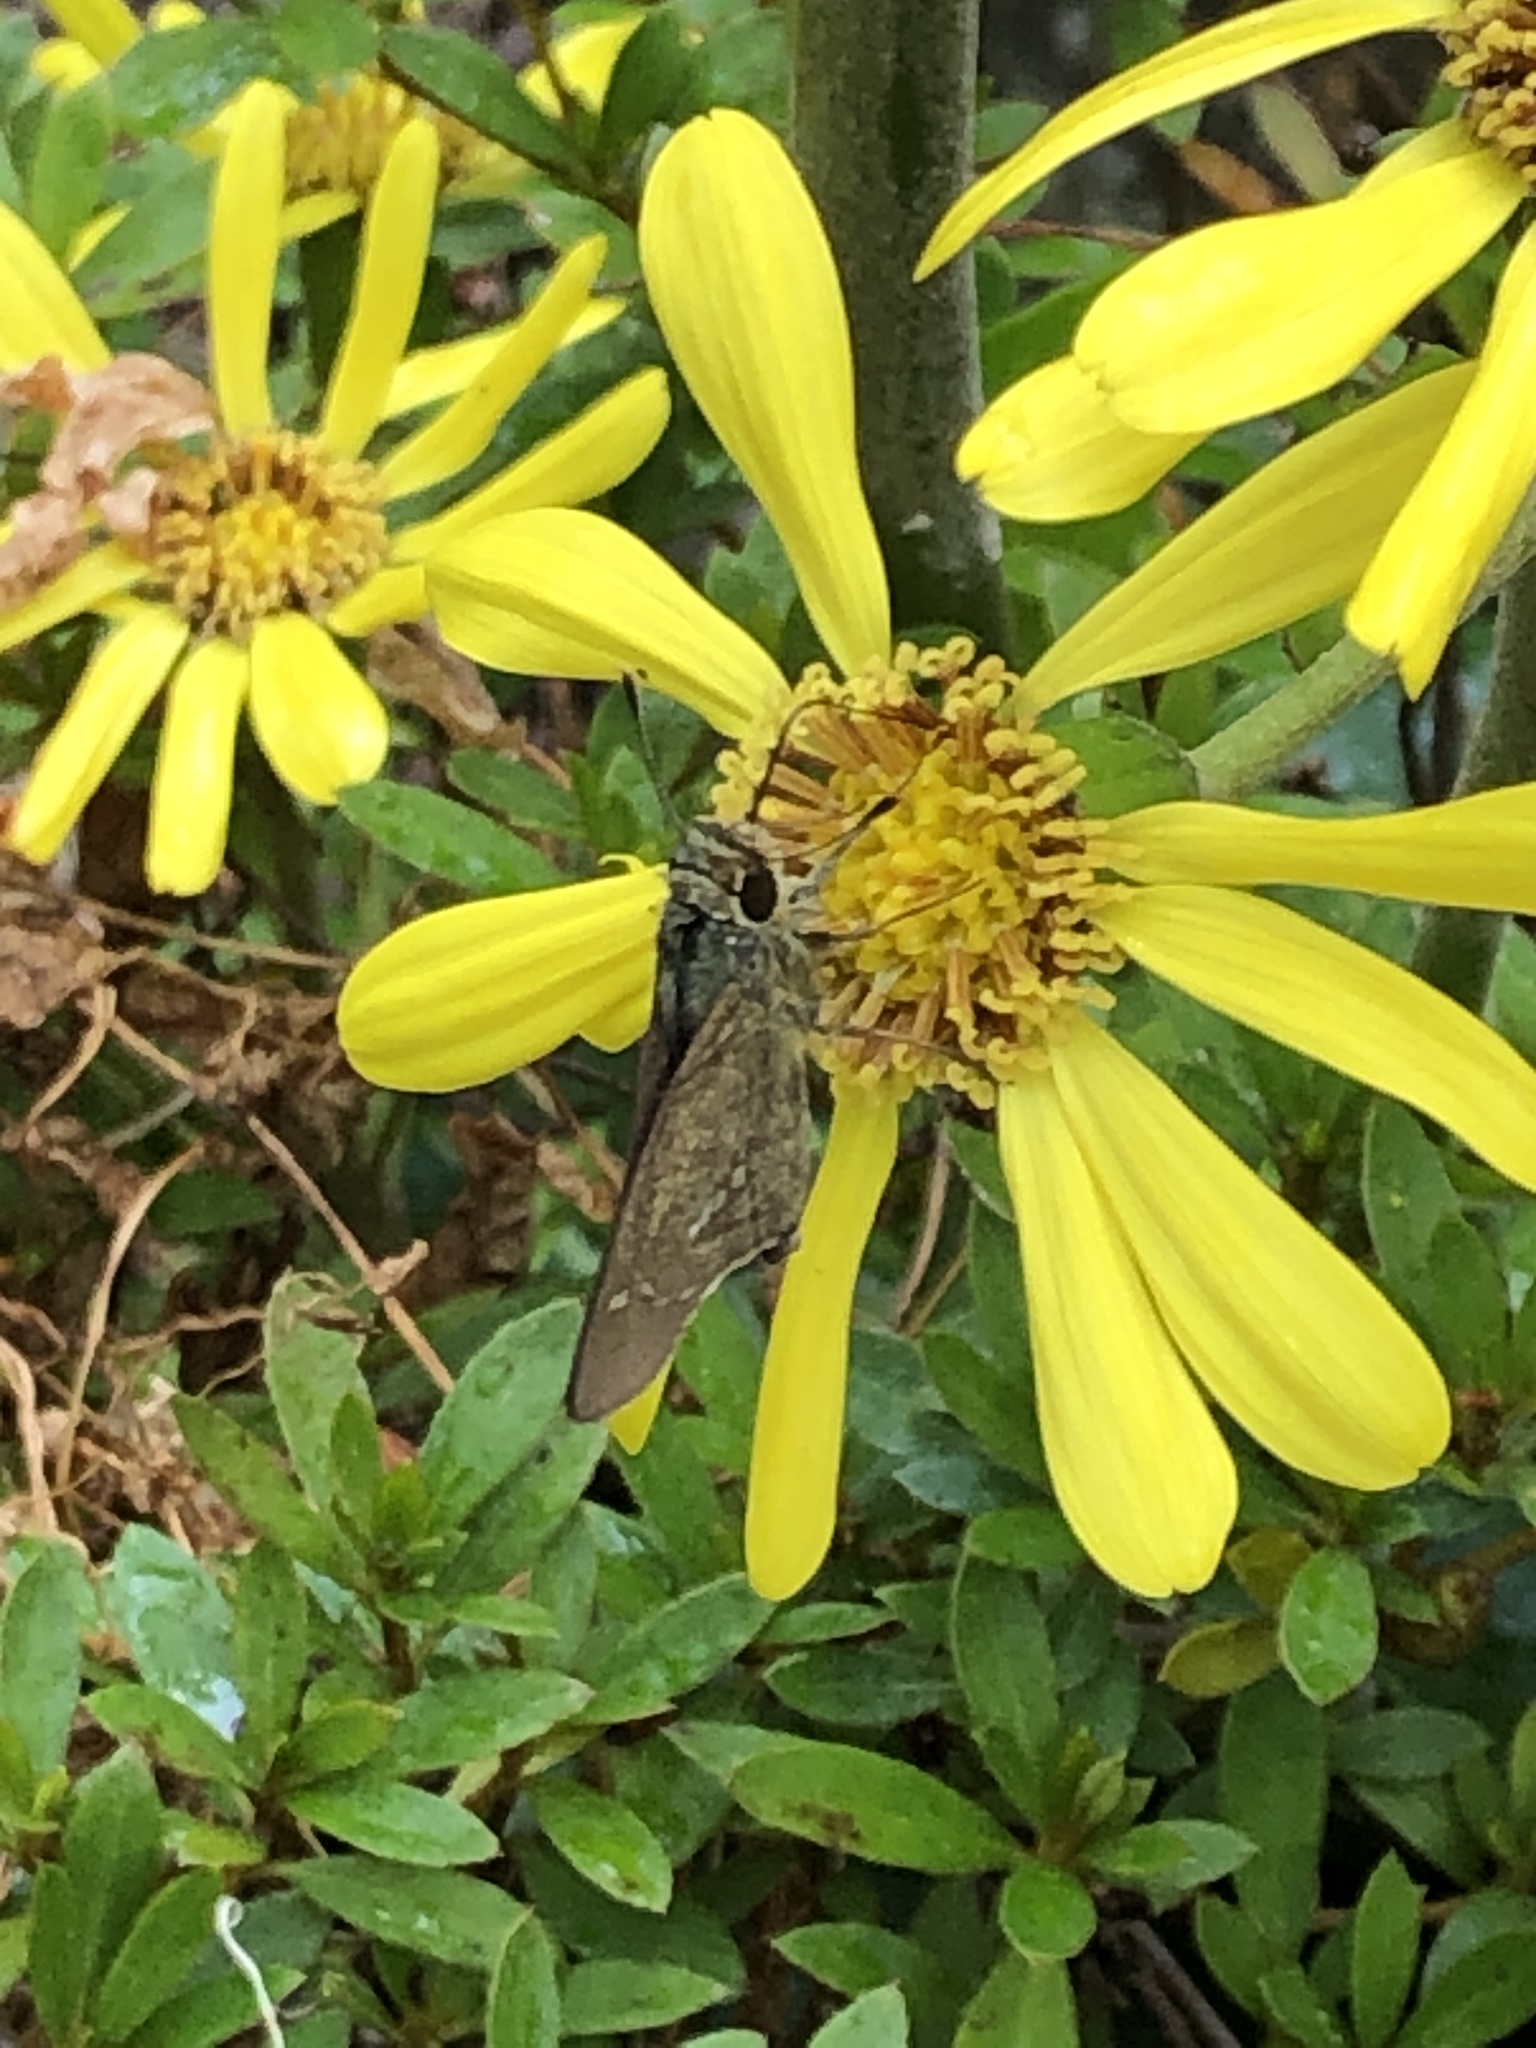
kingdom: Animalia
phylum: Arthropoda
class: Insecta
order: Lepidoptera
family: Hesperiidae
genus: Parnara
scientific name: Parnara guttatus
